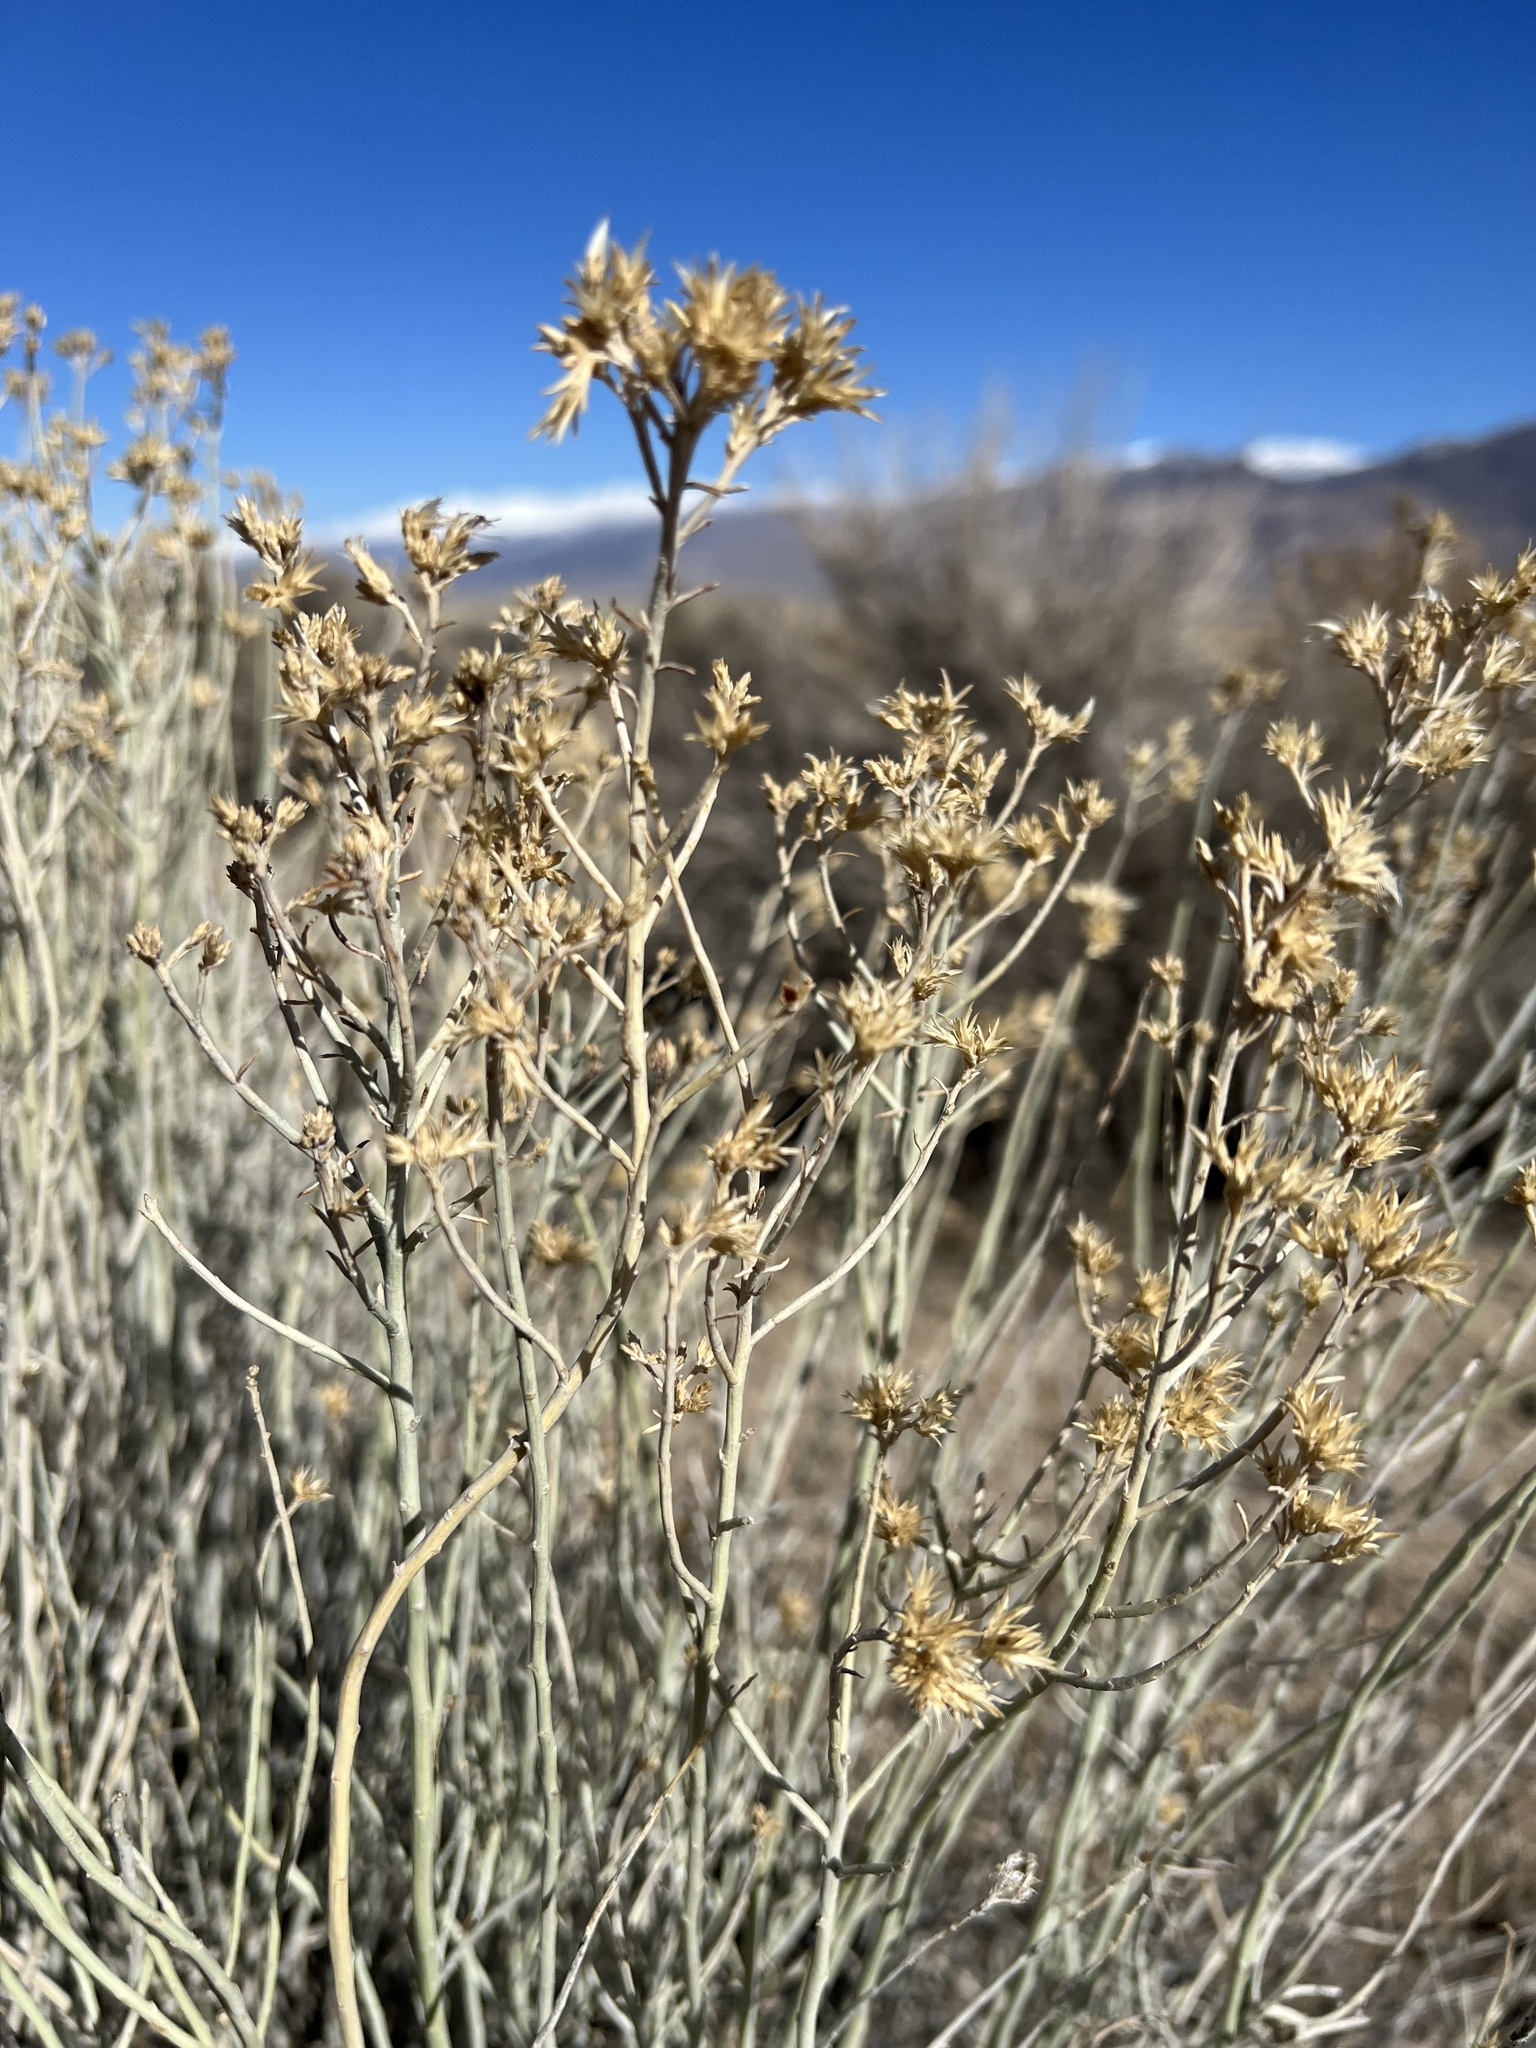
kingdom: Plantae
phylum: Tracheophyta
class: Magnoliopsida
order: Asterales
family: Asteraceae
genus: Ericameria
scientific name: Ericameria nauseosa
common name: Rubber rabbitbrush
